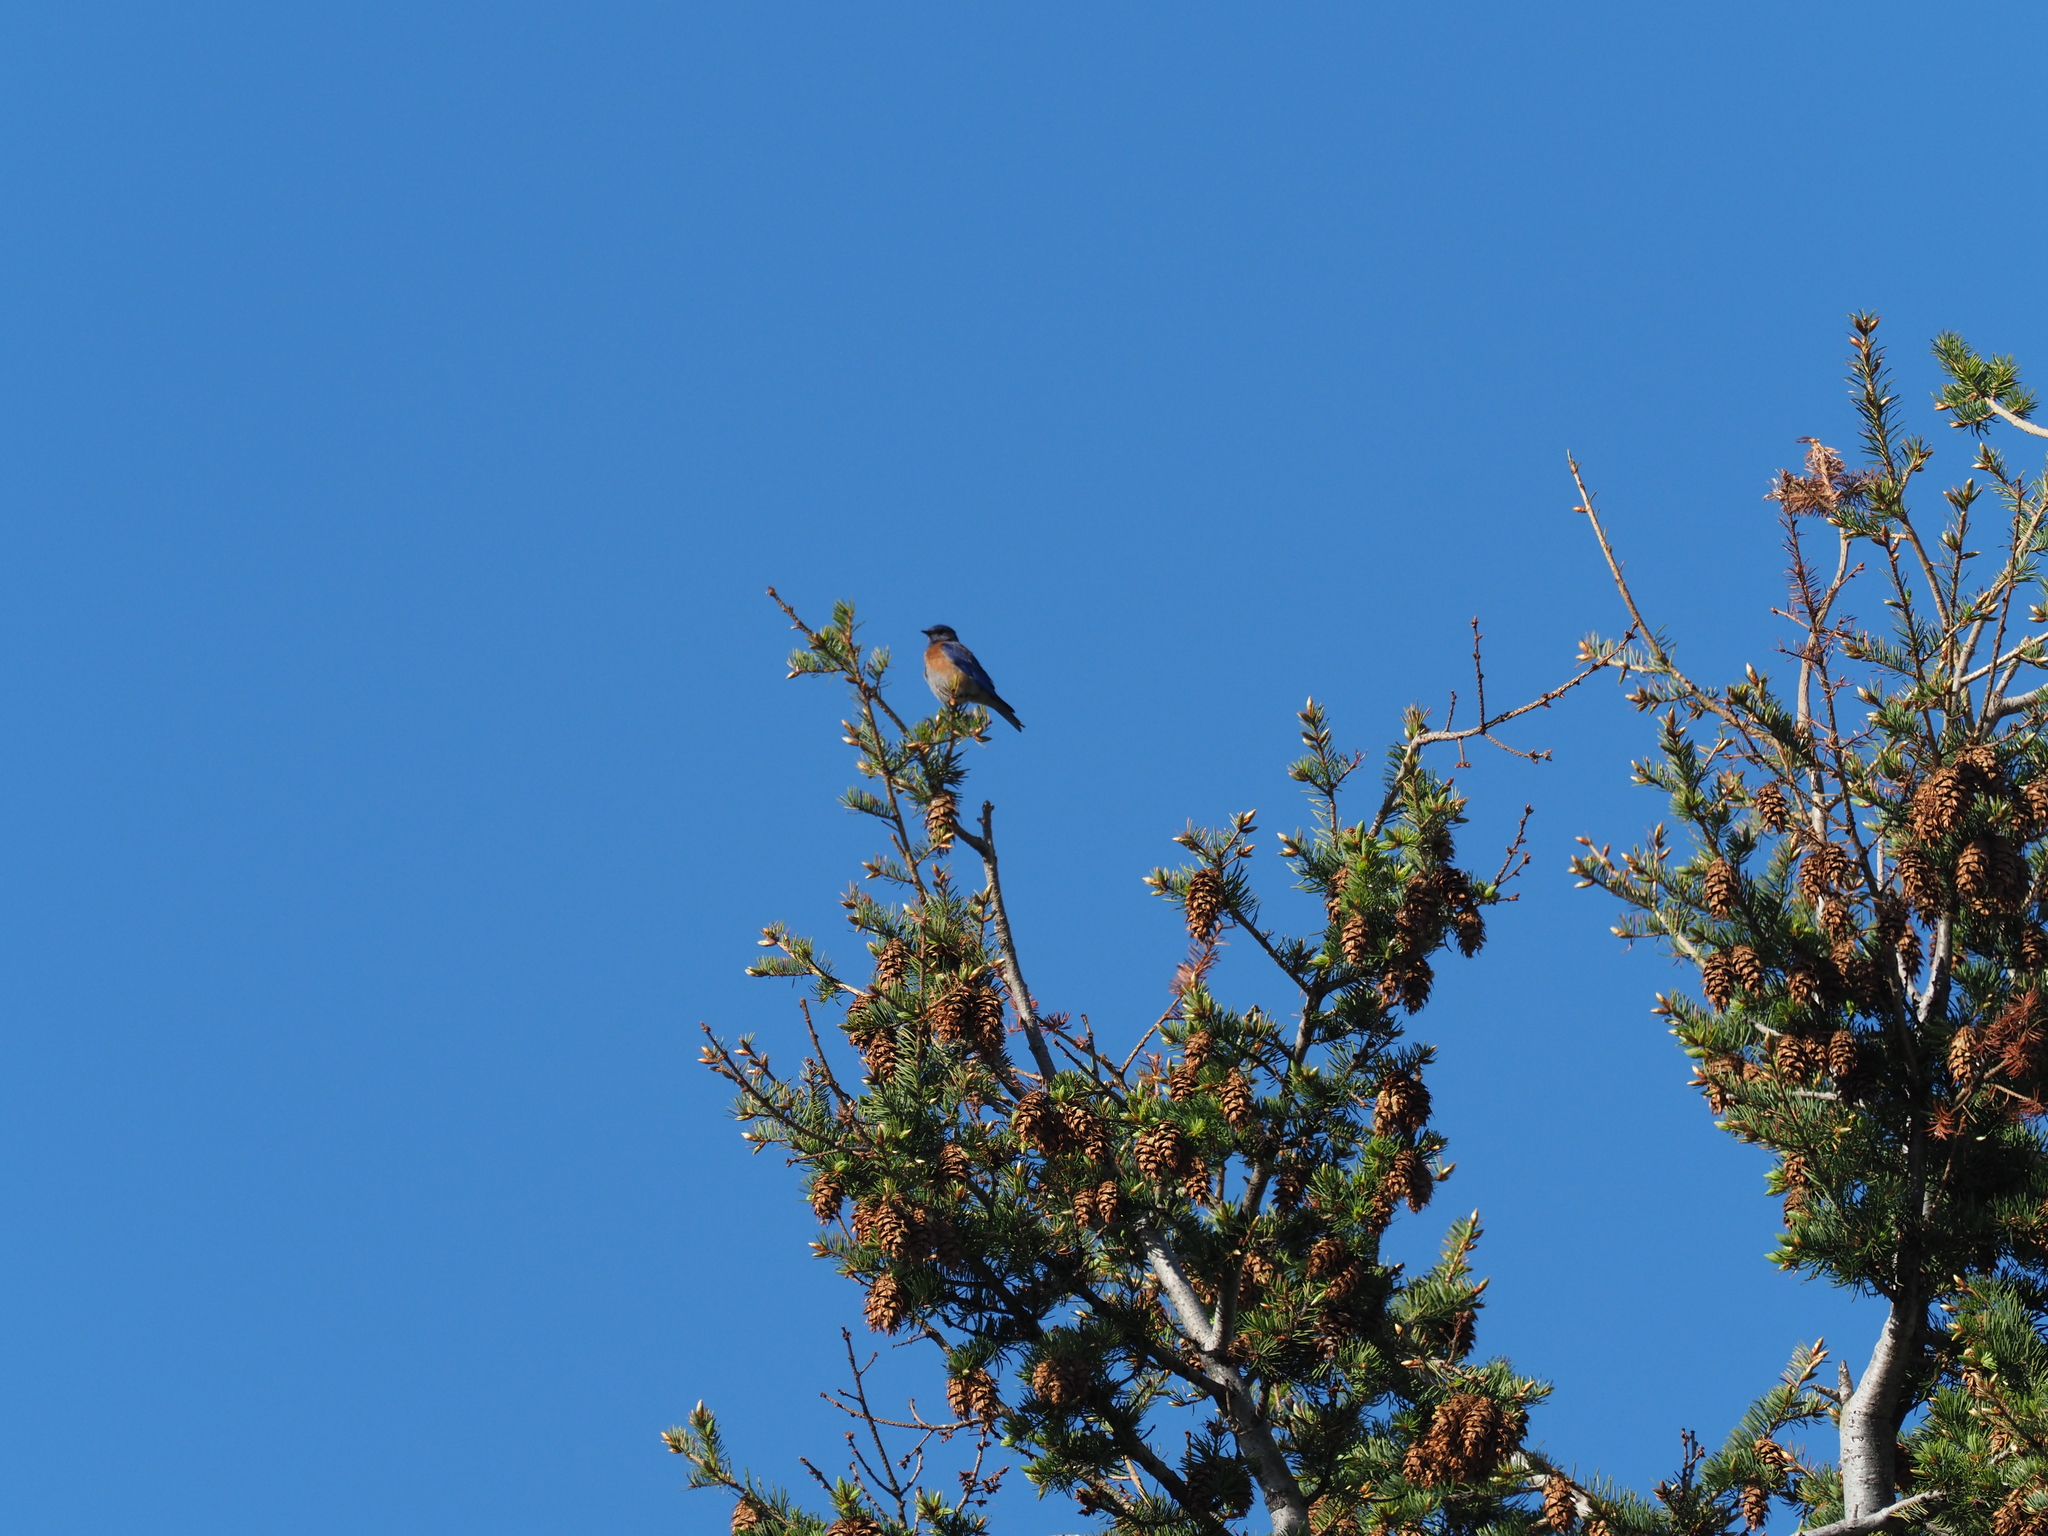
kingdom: Animalia
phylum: Chordata
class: Aves
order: Passeriformes
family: Turdidae
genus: Sialia
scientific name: Sialia mexicana
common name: Western bluebird
